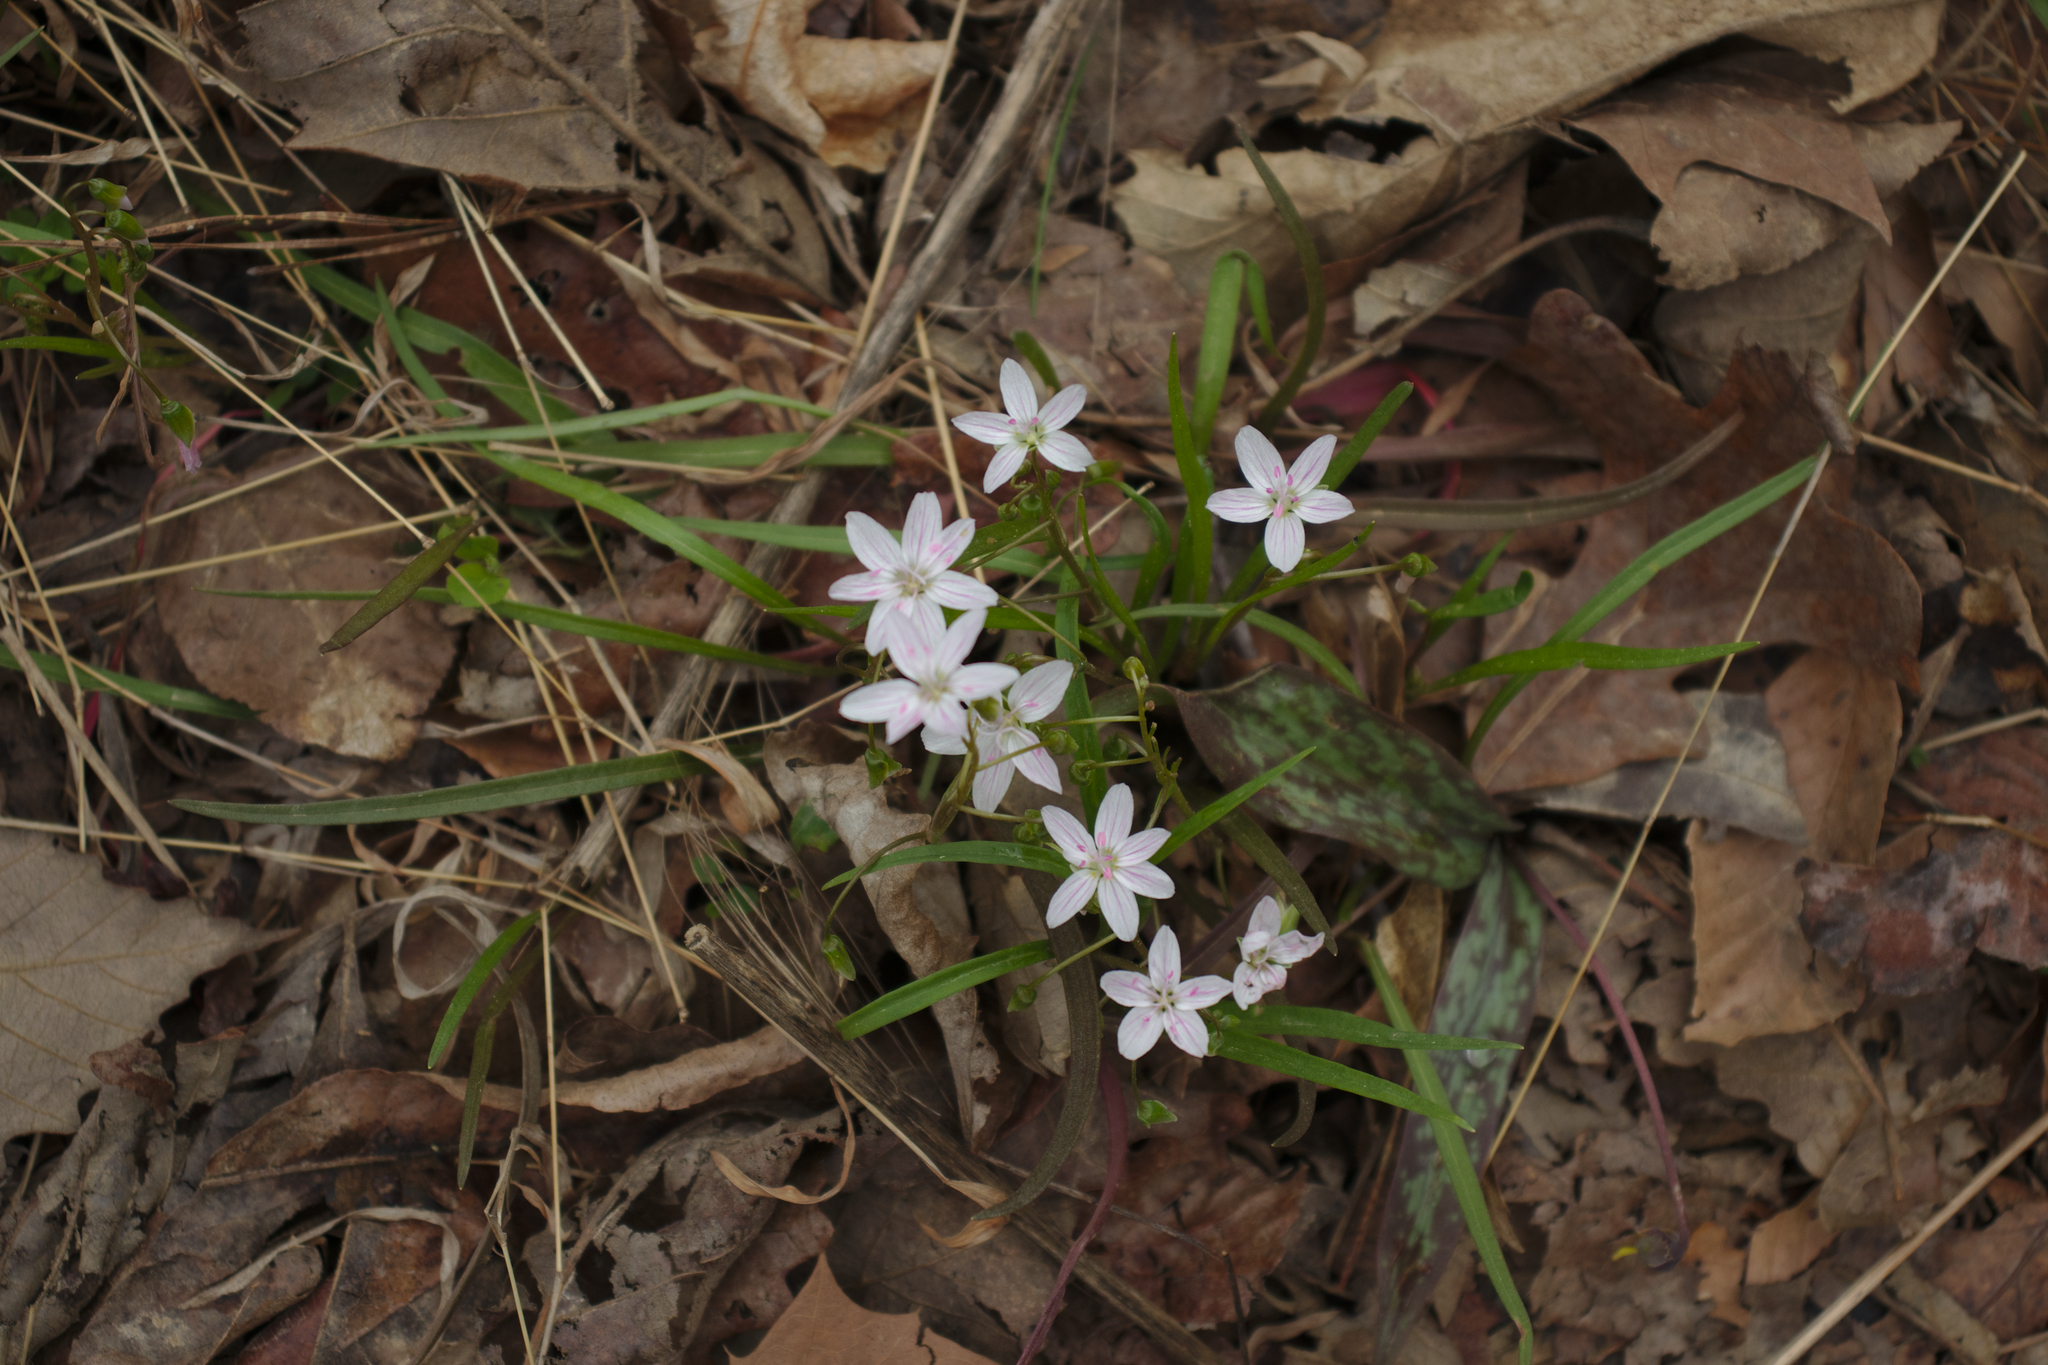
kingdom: Plantae
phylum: Tracheophyta
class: Magnoliopsida
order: Caryophyllales
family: Montiaceae
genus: Claytonia
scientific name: Claytonia virginica
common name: Virginia springbeauty
